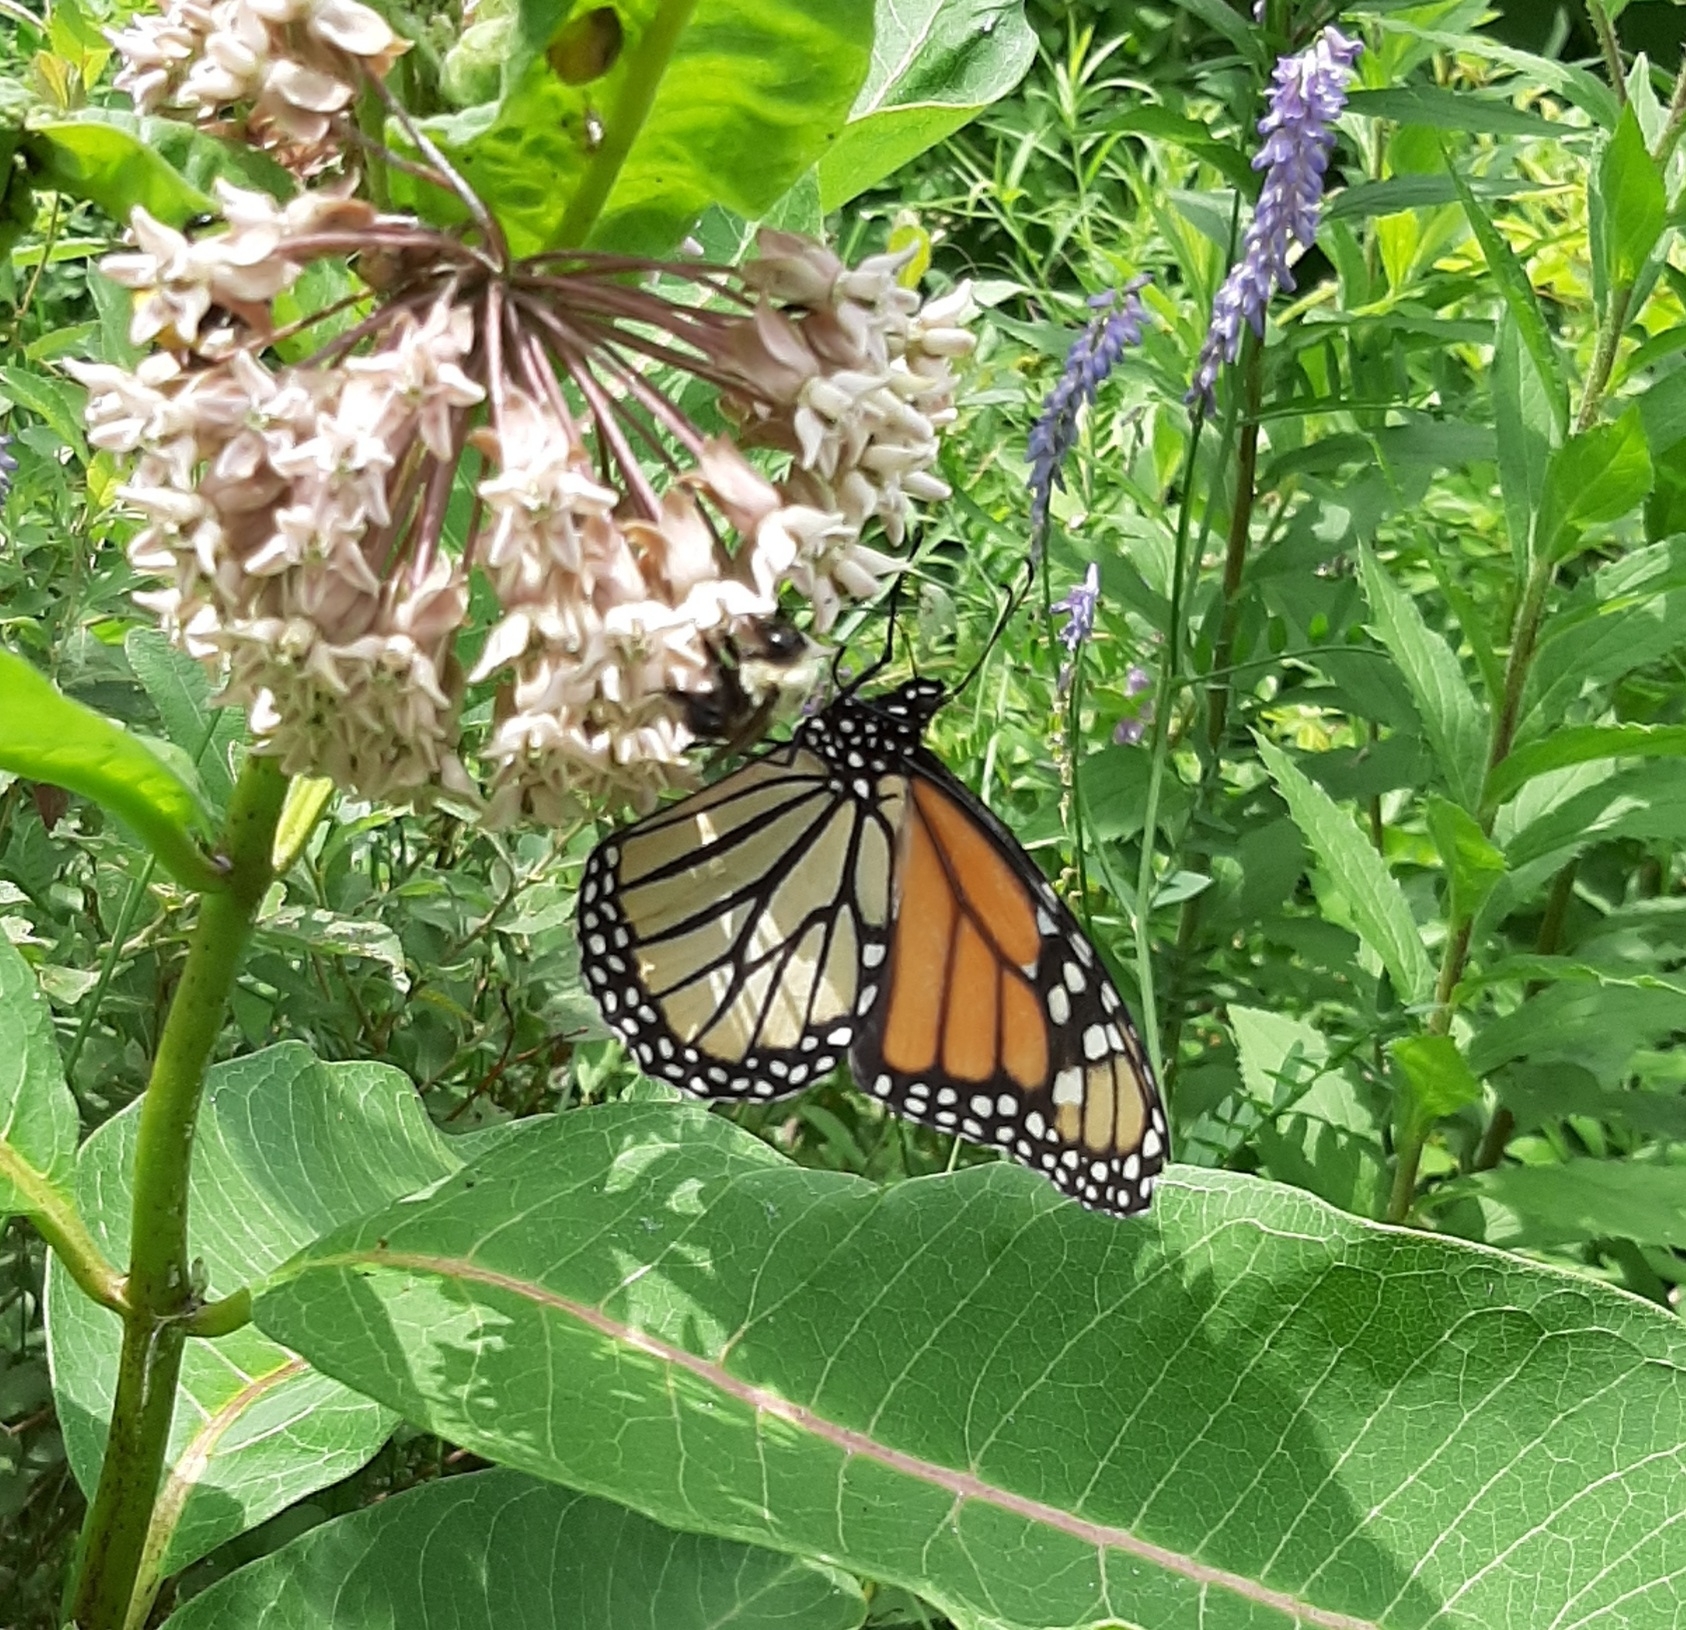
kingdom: Animalia
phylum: Arthropoda
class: Insecta
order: Lepidoptera
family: Nymphalidae
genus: Danaus
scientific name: Danaus plexippus
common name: Monarch
